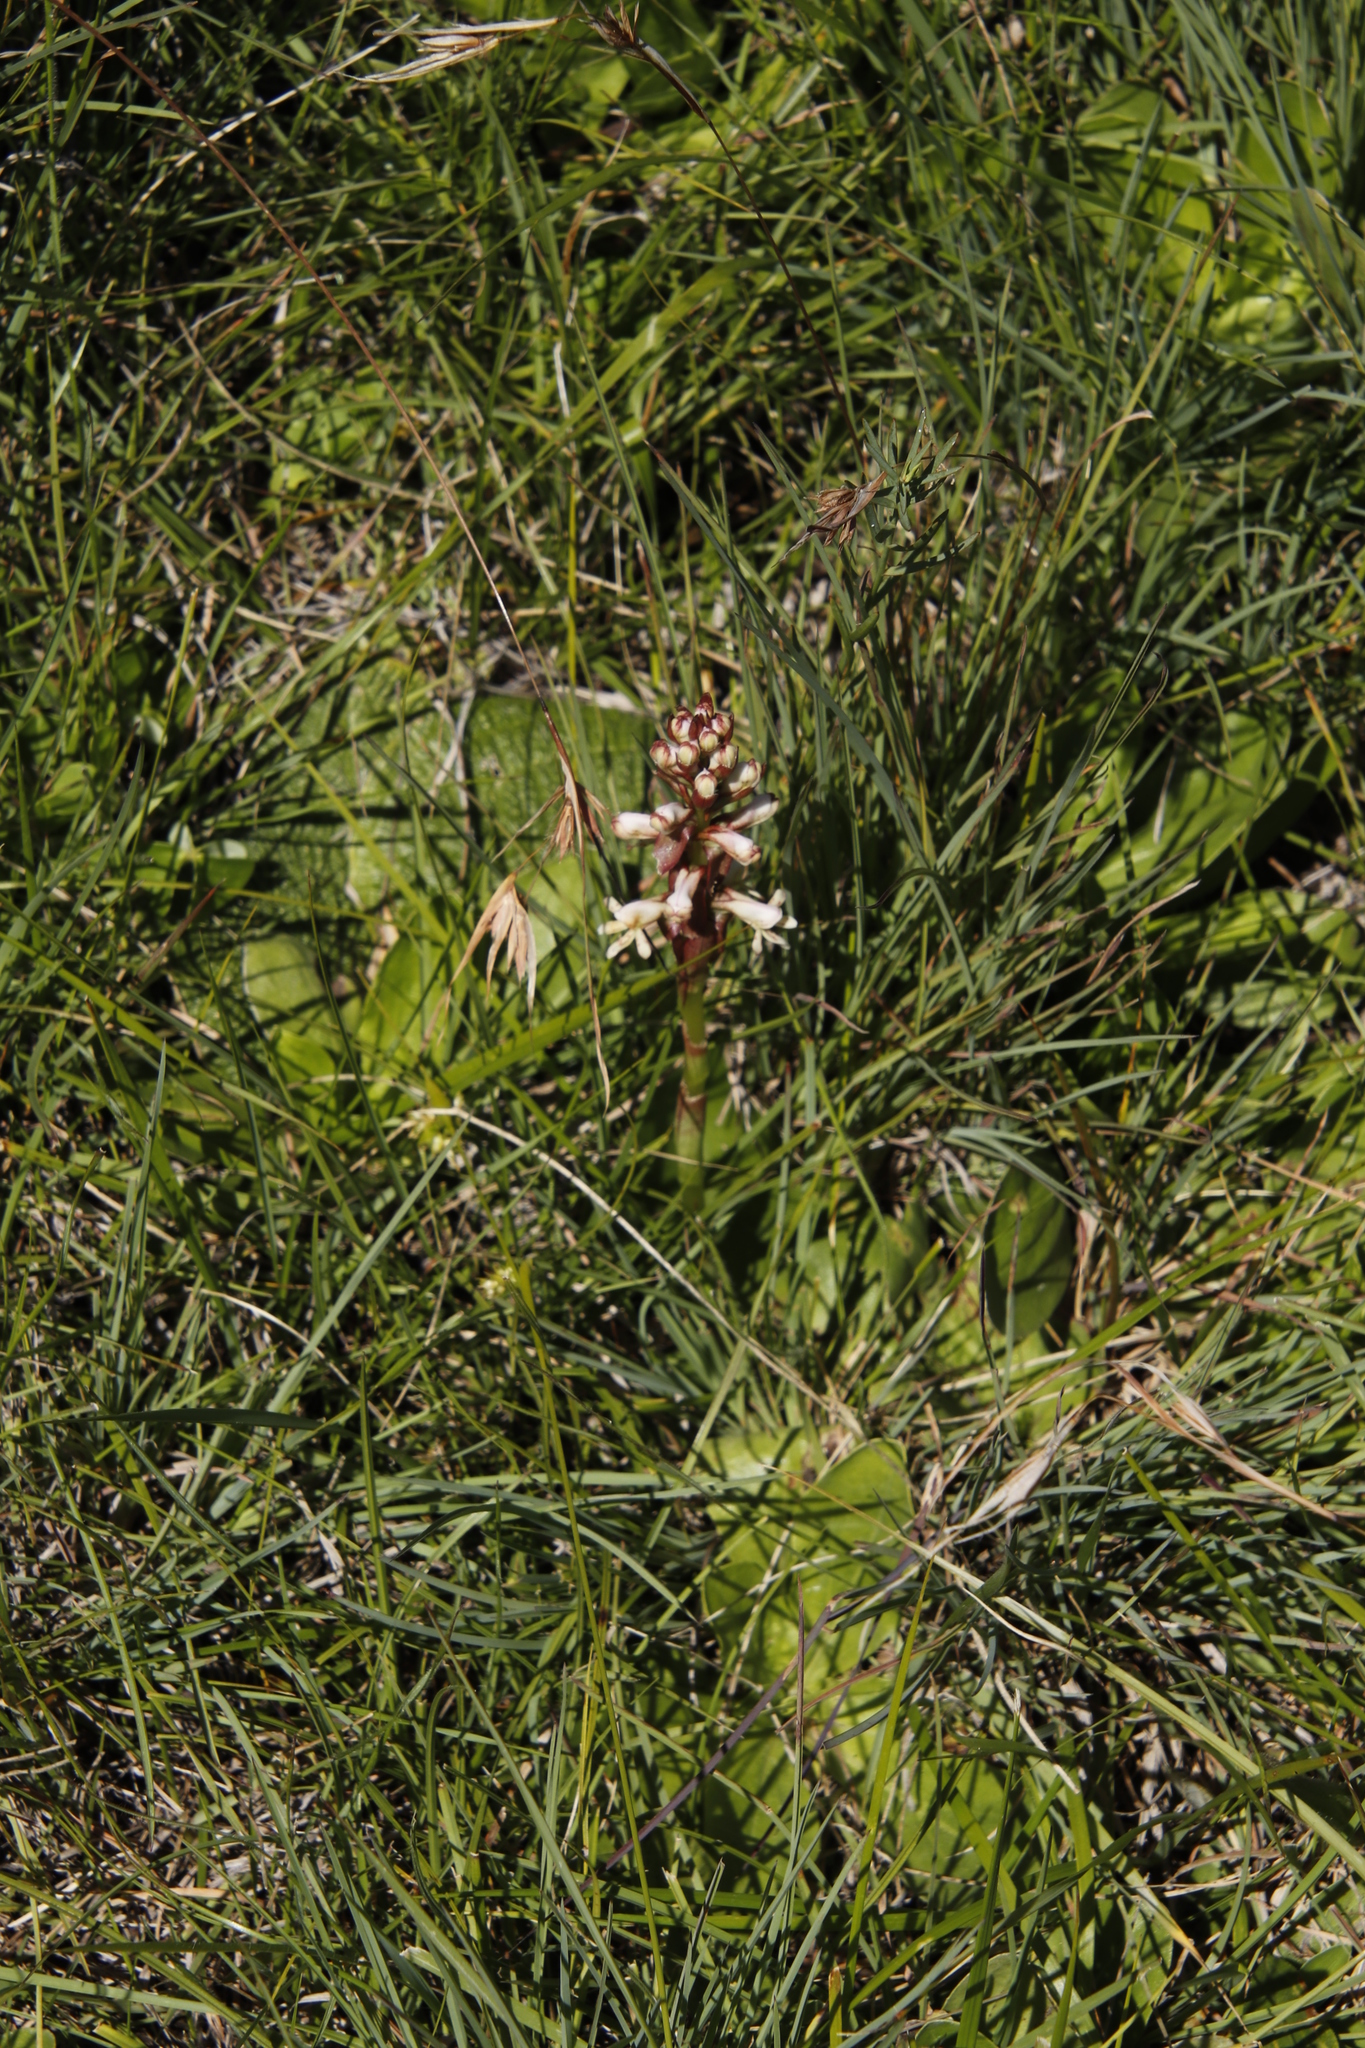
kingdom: Plantae
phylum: Tracheophyta
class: Liliopsida
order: Asparagales
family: Orchidaceae
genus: Satyrium
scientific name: Satyrium cristatum
